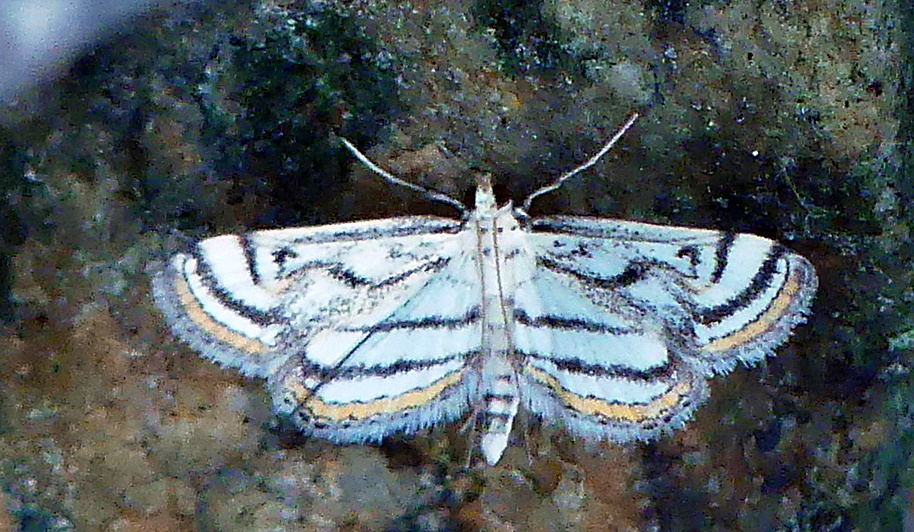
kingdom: Animalia
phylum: Arthropoda
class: Insecta
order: Lepidoptera
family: Crambidae
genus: Parapoynx
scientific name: Parapoynx badiusalis
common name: Chestnut-marked pondweed moth
